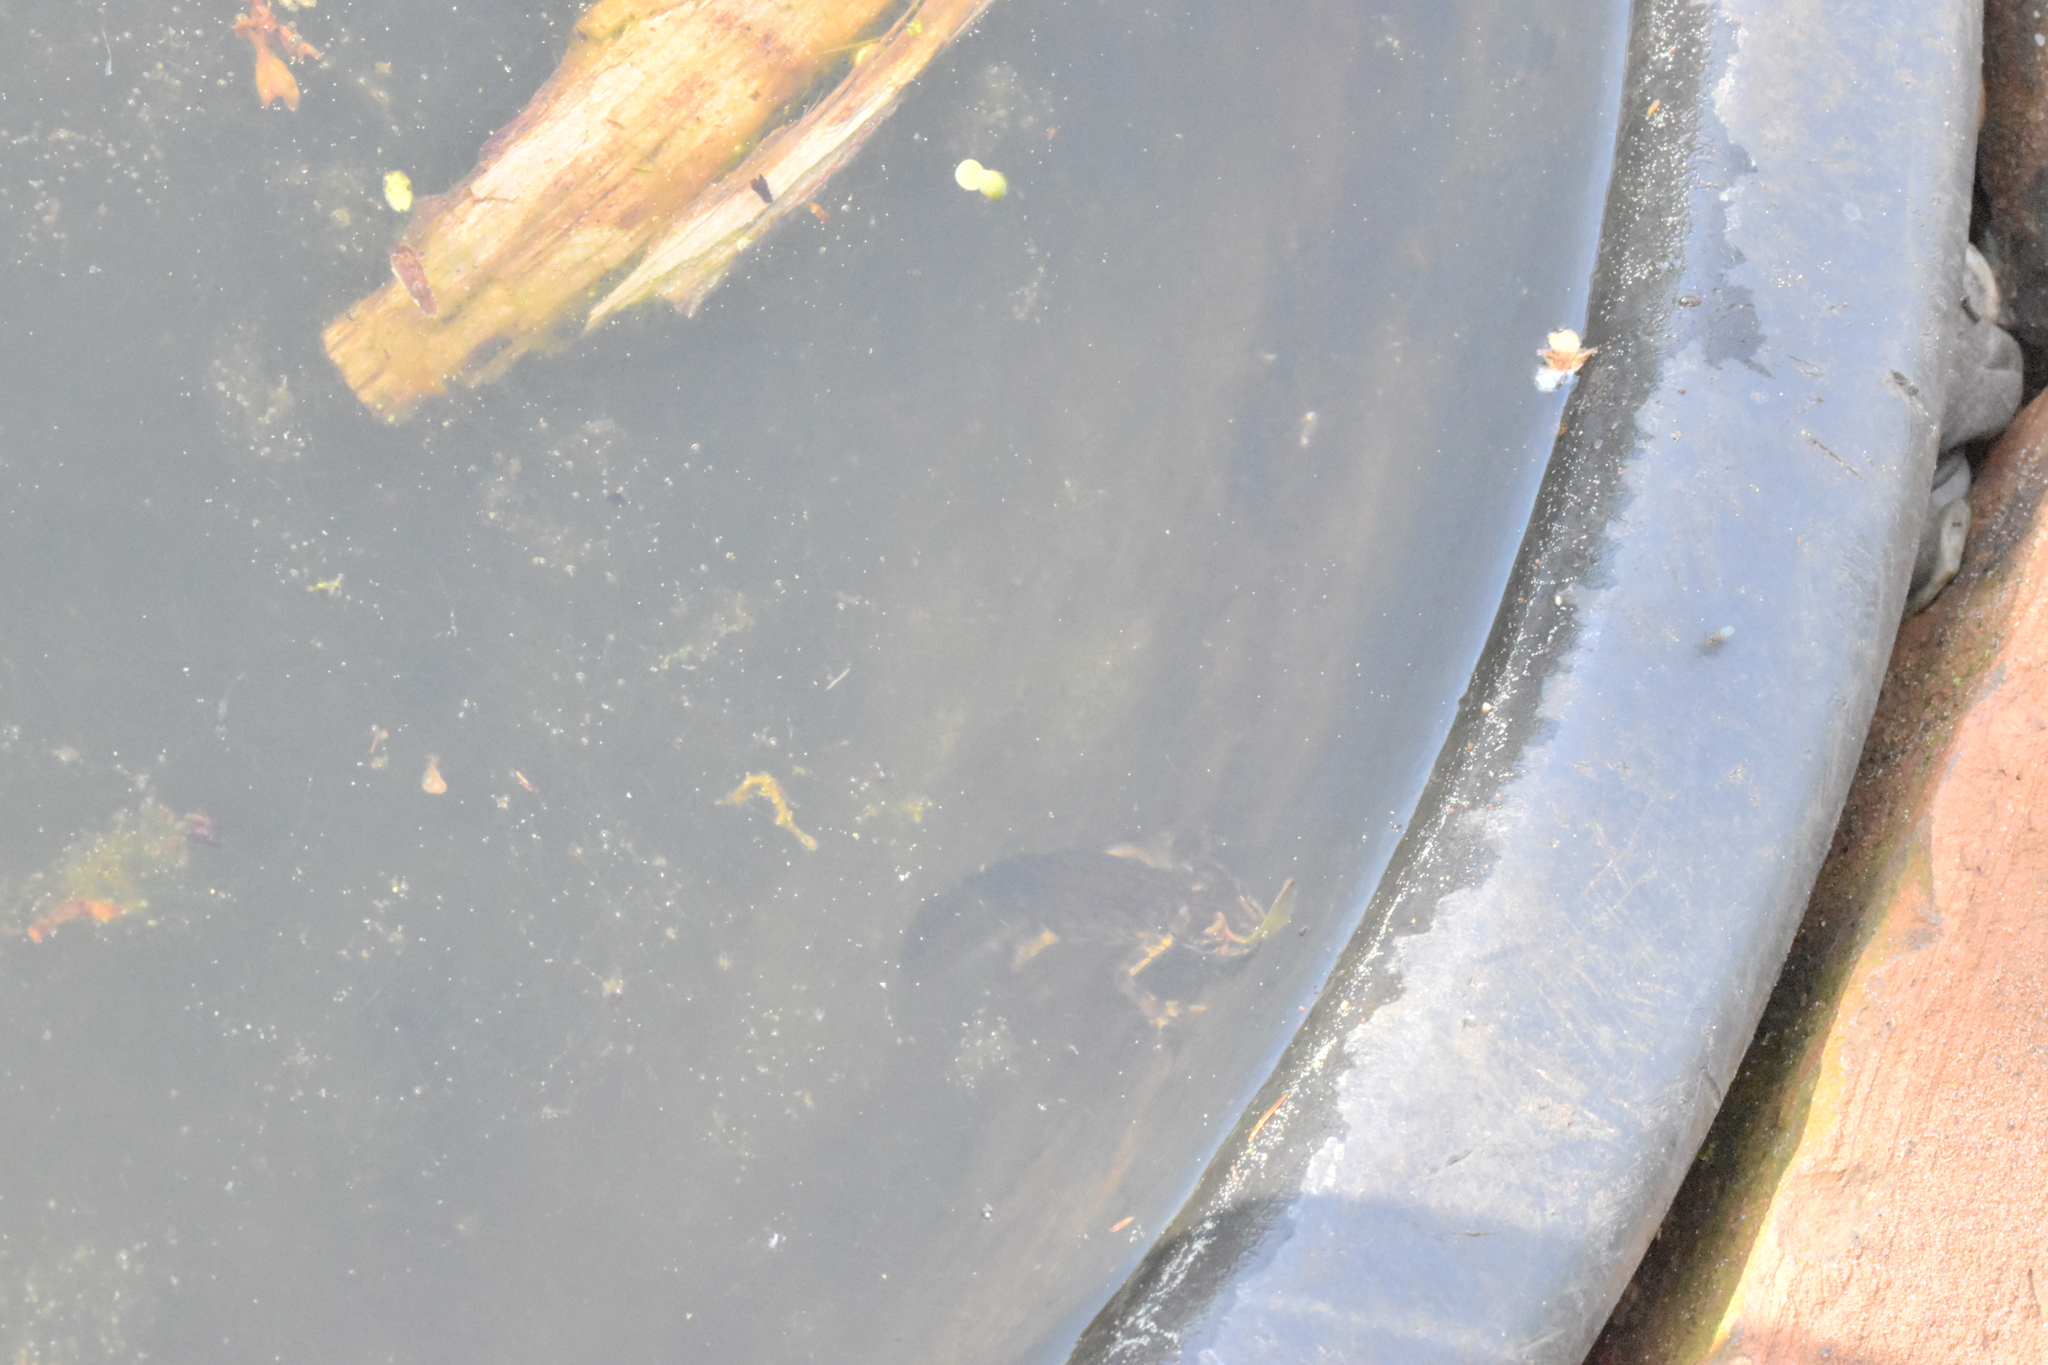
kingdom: Animalia
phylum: Chordata
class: Amphibia
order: Caudata
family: Salamandridae
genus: Lissotriton
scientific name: Lissotriton vulgaris
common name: Smooth newt
